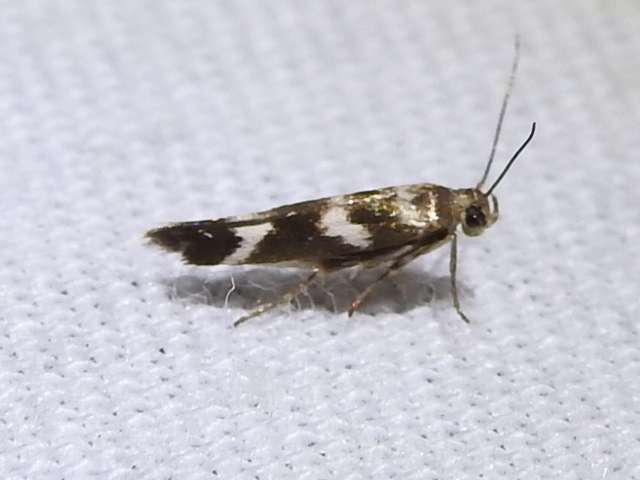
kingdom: Animalia
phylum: Arthropoda
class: Insecta
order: Lepidoptera
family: Scythrididae
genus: Scythris
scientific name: Scythris trivinctella
